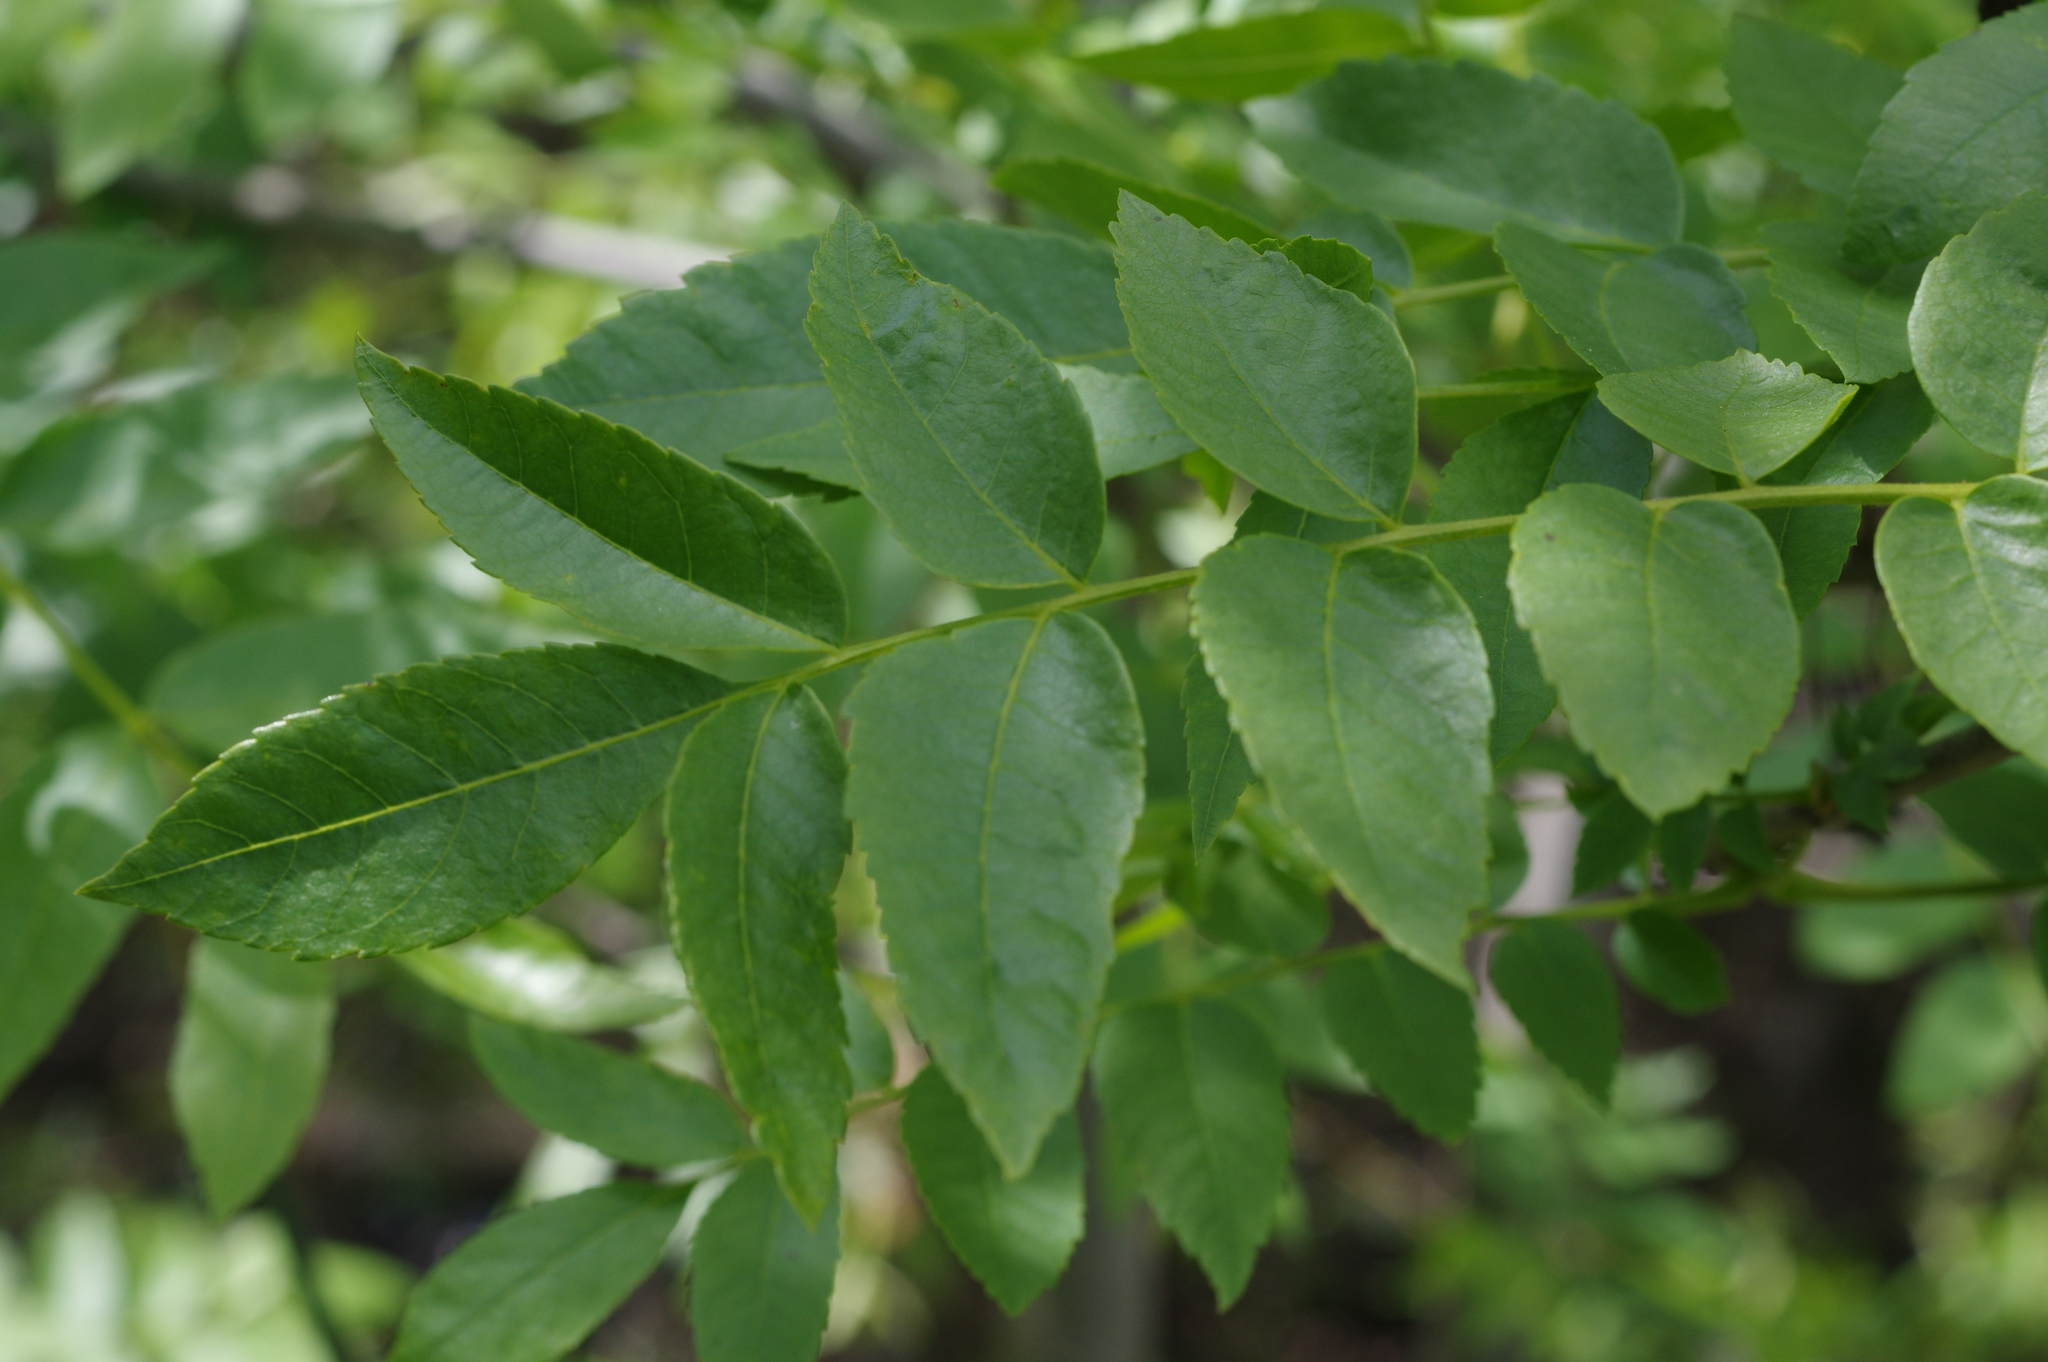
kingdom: Plantae
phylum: Tracheophyta
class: Magnoliopsida
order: Lamiales
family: Oleaceae
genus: Fraxinus
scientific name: Fraxinus dipetala
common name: California ash
